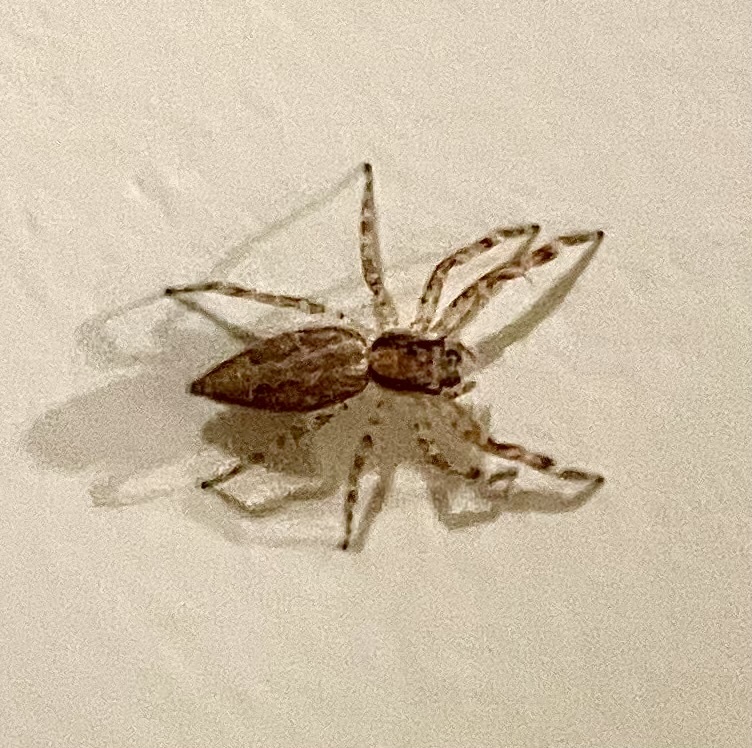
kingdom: Animalia
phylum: Arthropoda
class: Arachnida
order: Araneae
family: Salticidae
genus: Helpis
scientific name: Helpis minitabunda
